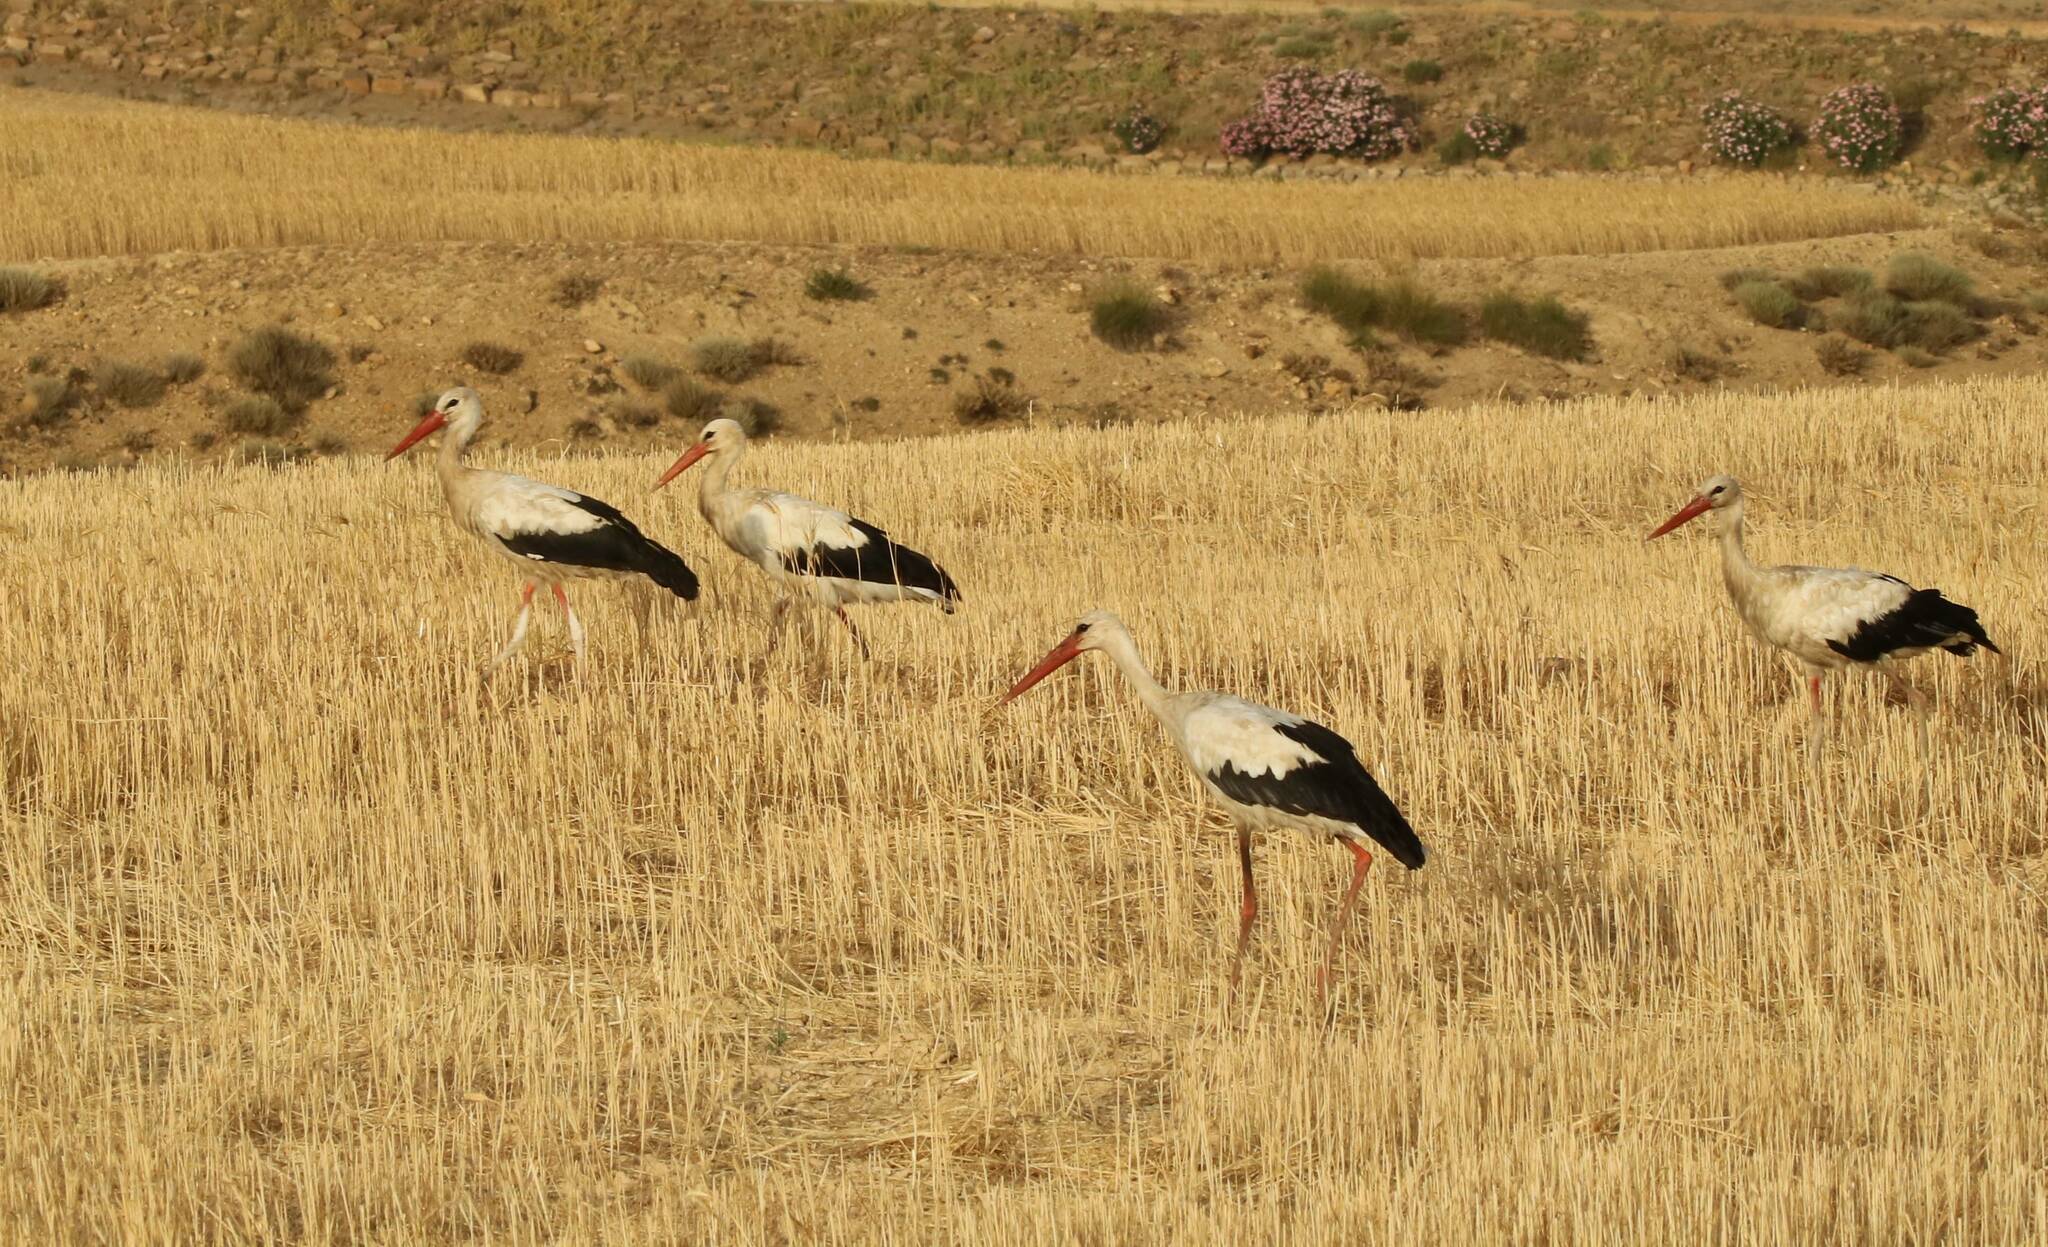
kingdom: Animalia
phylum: Chordata
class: Aves
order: Ciconiiformes
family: Ciconiidae
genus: Ciconia
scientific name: Ciconia ciconia
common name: White stork
